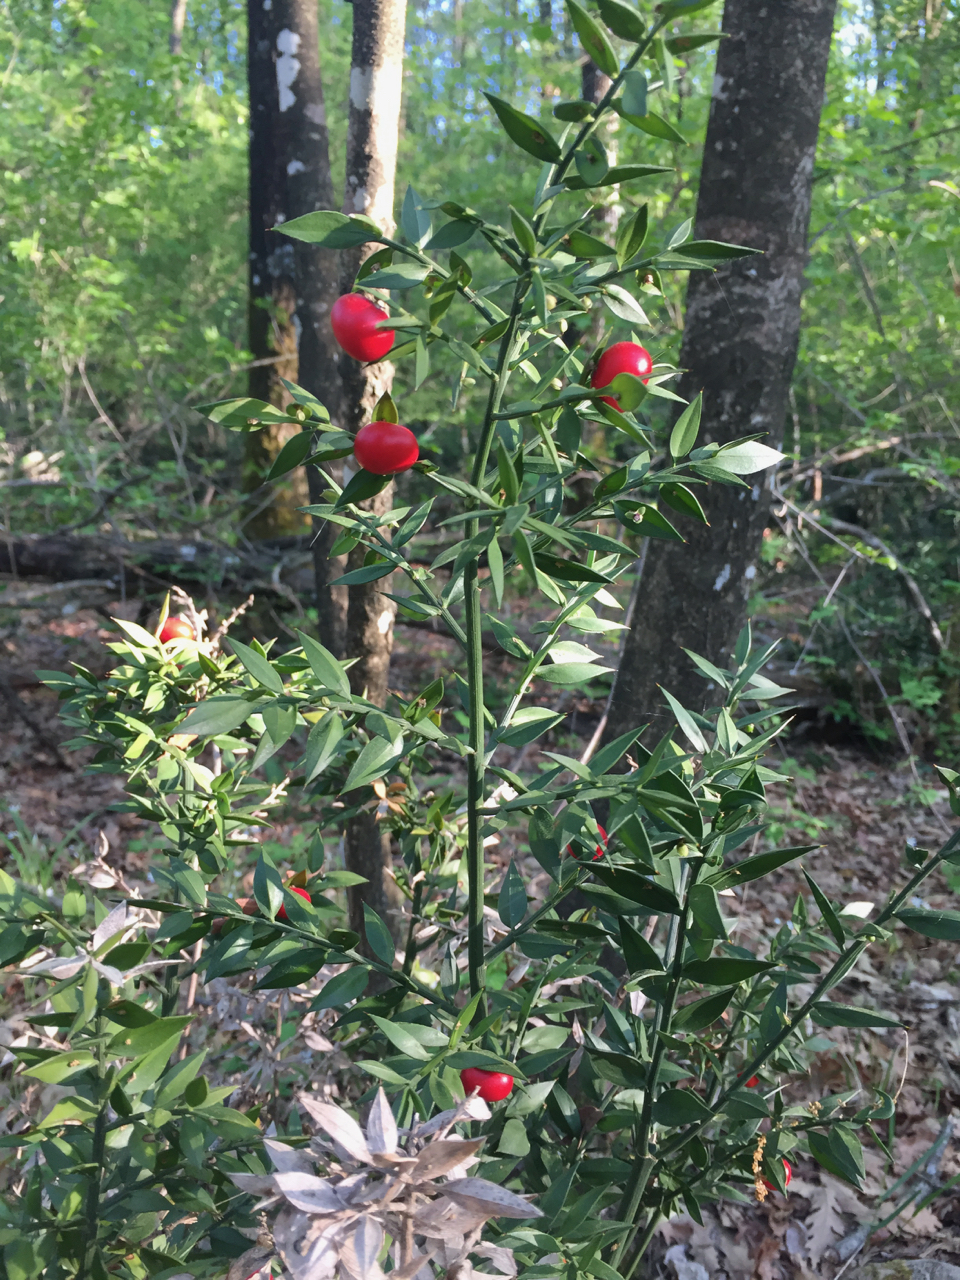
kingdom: Plantae
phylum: Tracheophyta
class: Liliopsida
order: Asparagales
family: Asparagaceae
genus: Ruscus
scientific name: Ruscus aculeatus
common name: Butcher's-broom
